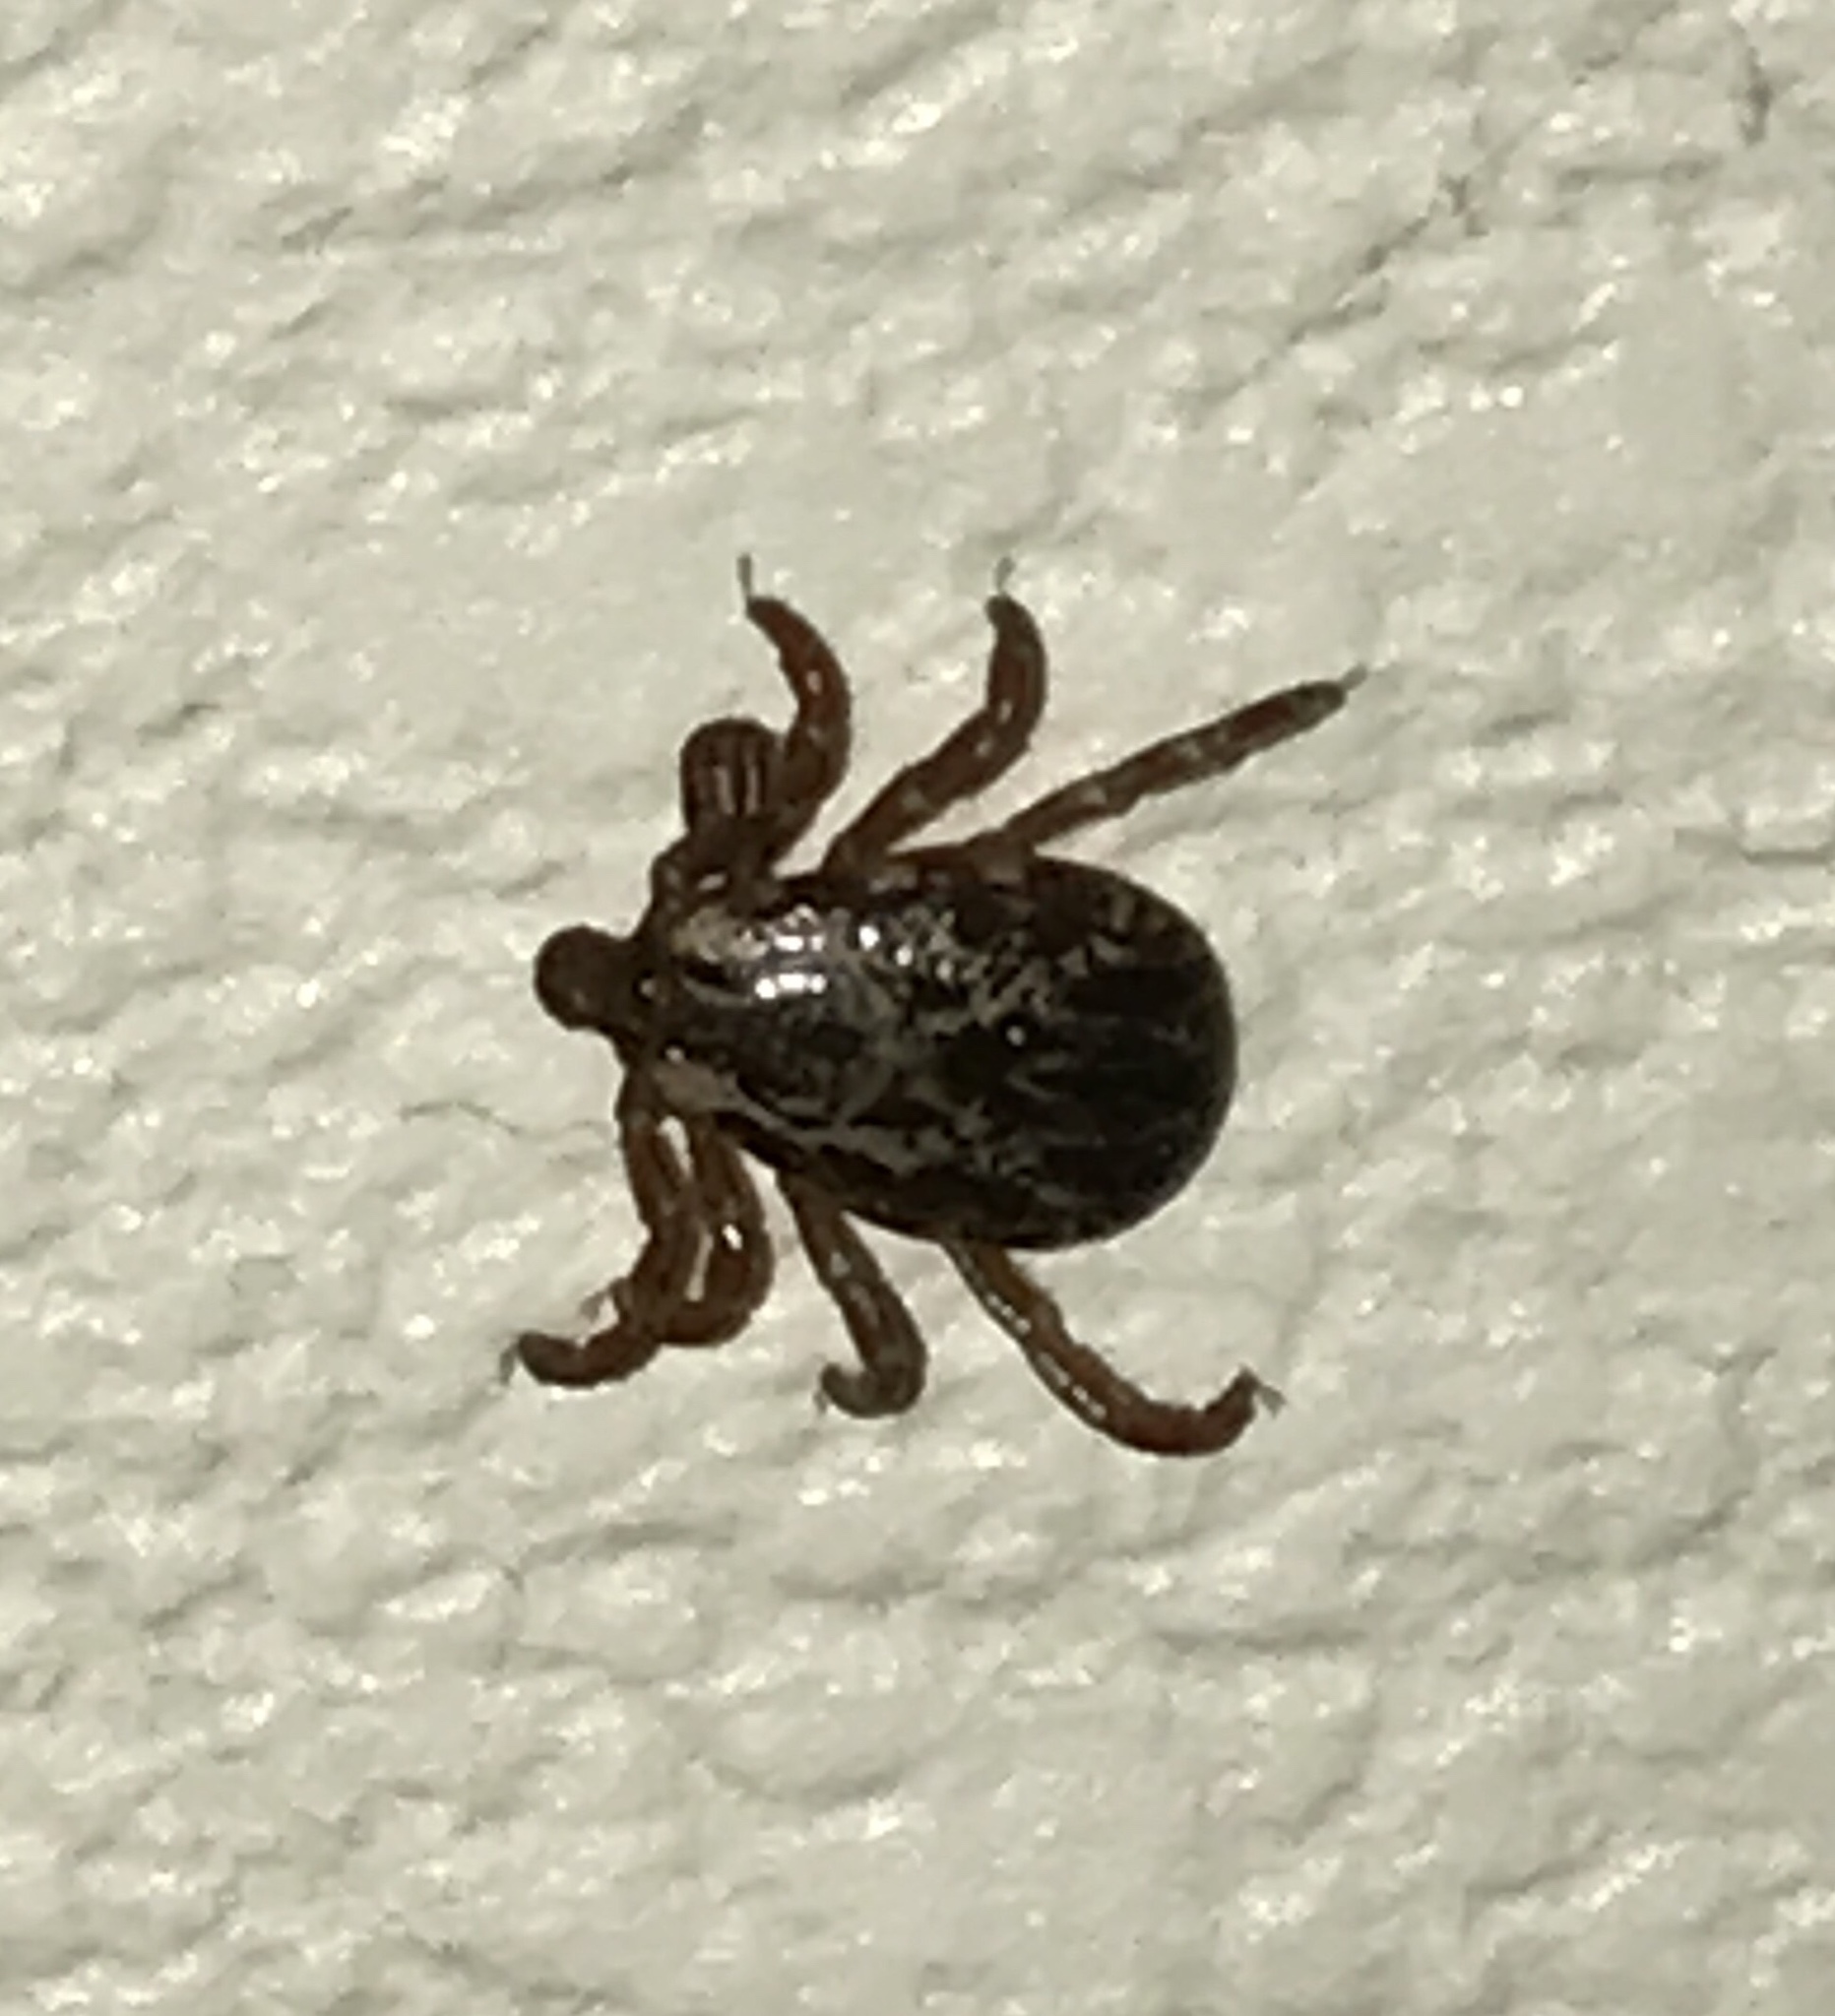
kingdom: Animalia
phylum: Arthropoda
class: Arachnida
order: Ixodida
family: Ixodidae
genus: Dermacentor
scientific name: Dermacentor variabilis
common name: American dog tick
